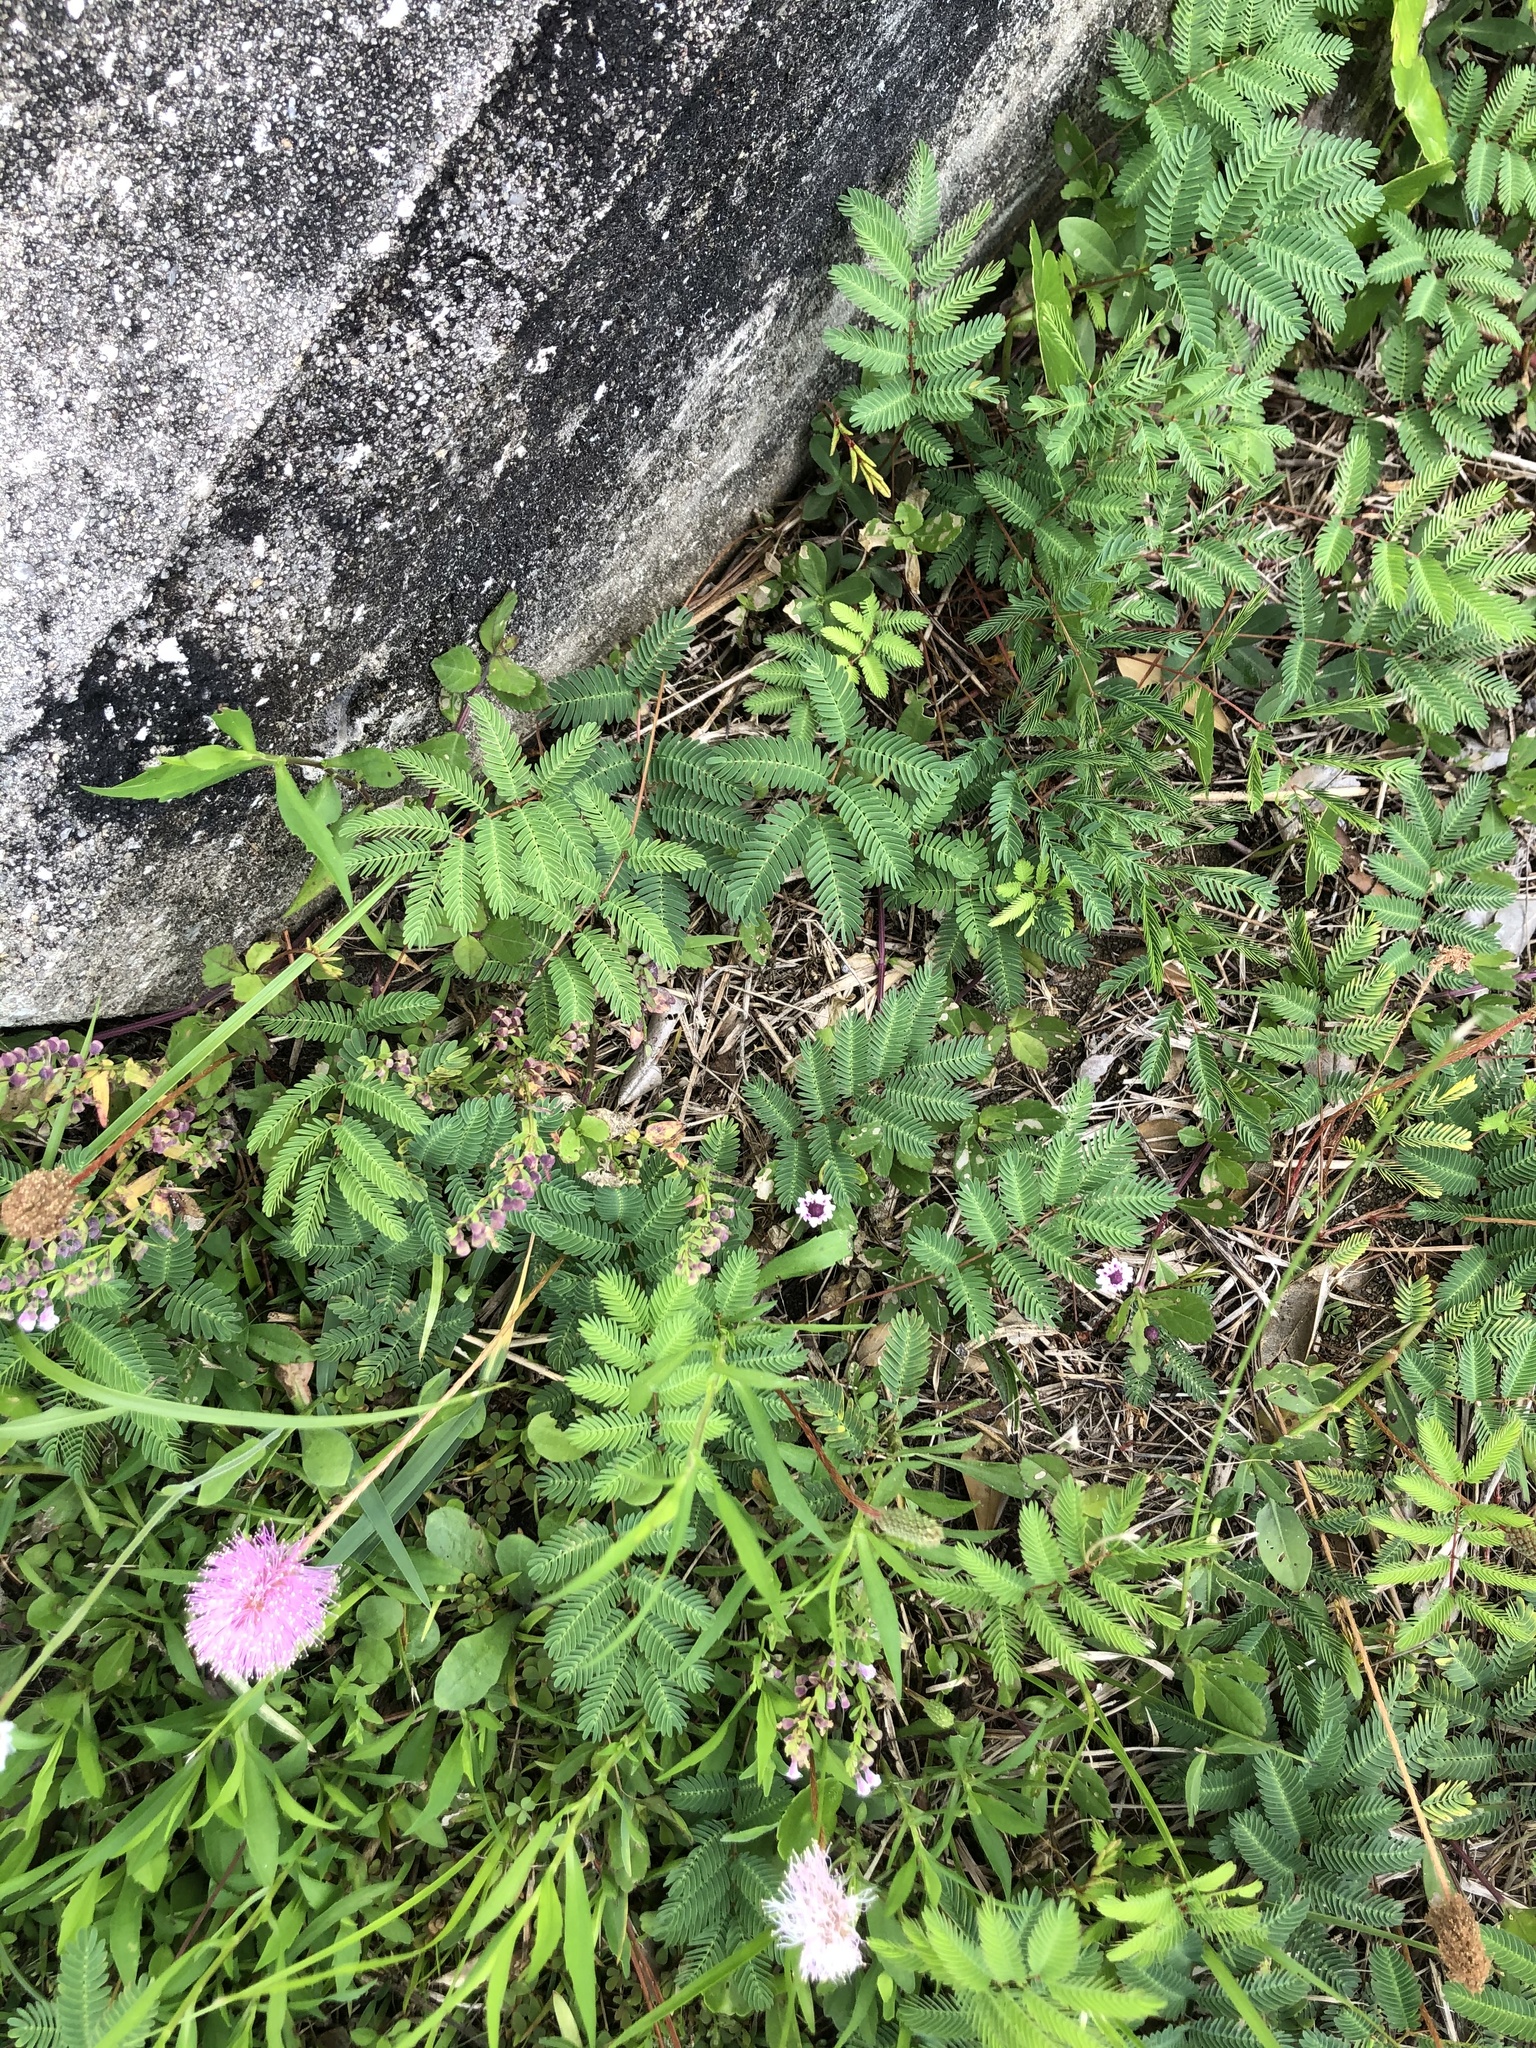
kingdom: Plantae
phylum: Tracheophyta
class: Magnoliopsida
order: Fabales
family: Fabaceae
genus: Mimosa
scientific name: Mimosa strigillosa
